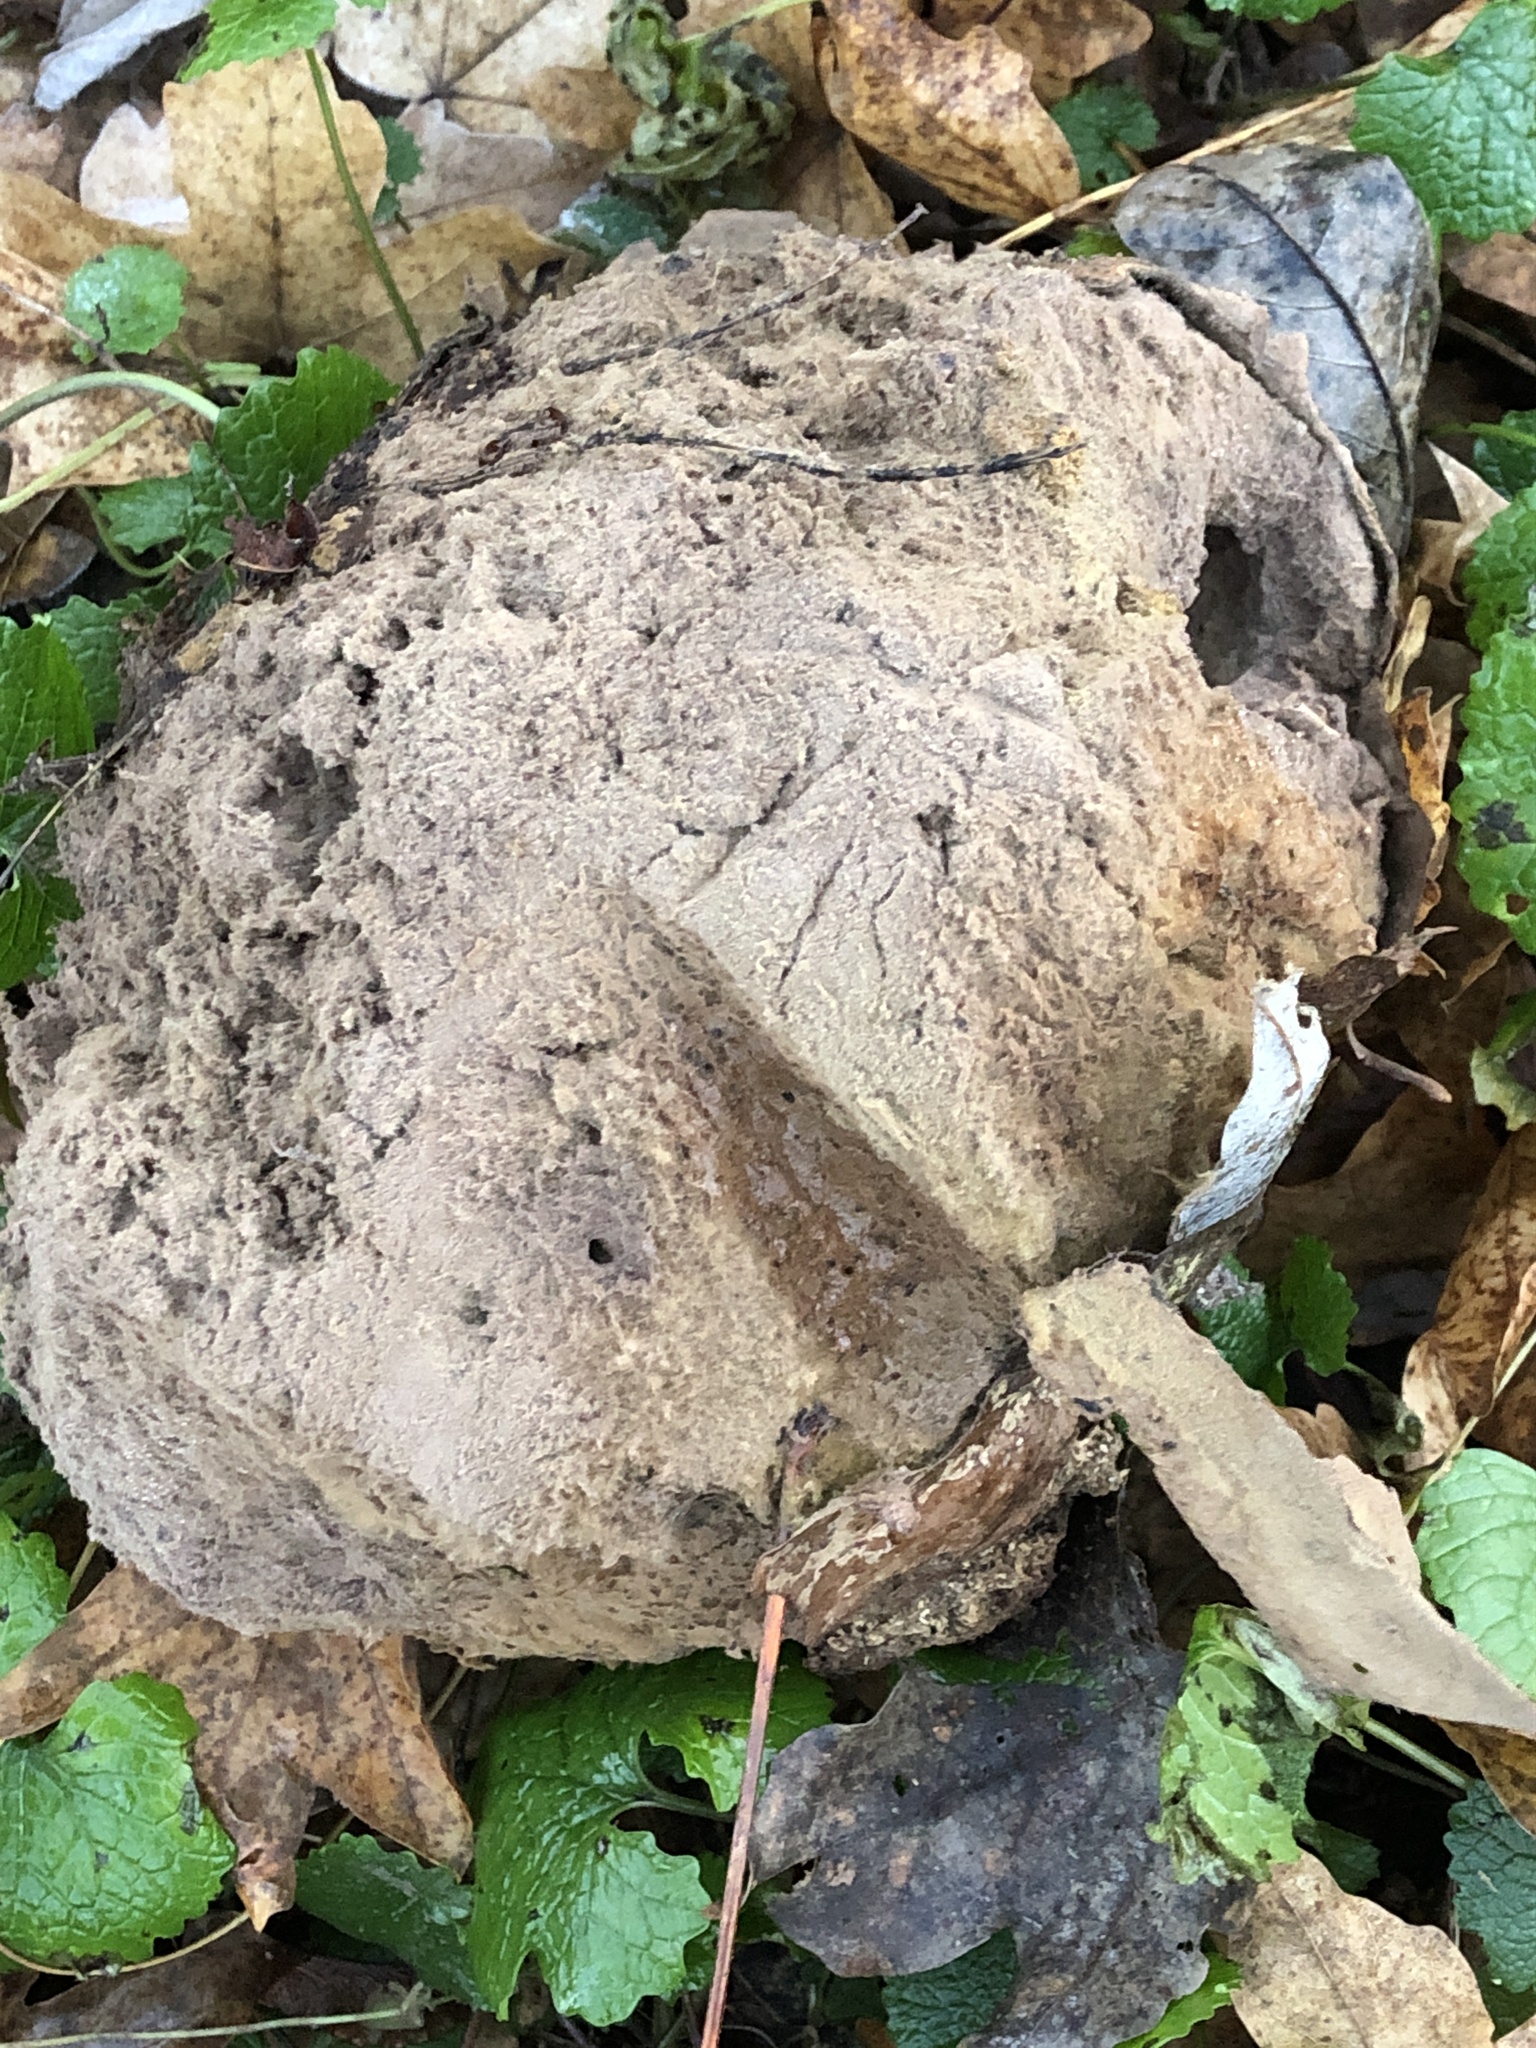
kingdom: Fungi
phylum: Basidiomycota
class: Agaricomycetes
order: Agaricales
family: Lycoperdaceae
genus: Calvatia
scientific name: Calvatia gigantea
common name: Giant puffball
